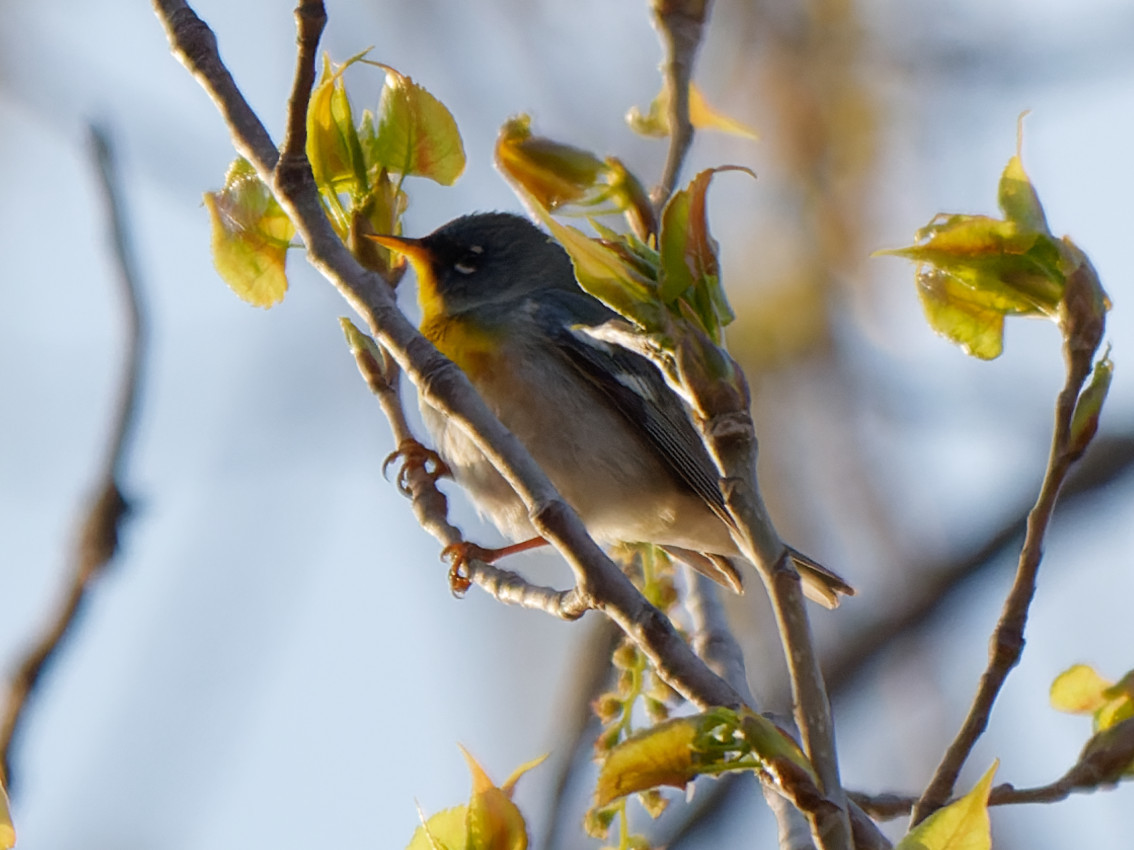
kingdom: Animalia
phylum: Chordata
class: Aves
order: Passeriformes
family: Parulidae
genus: Setophaga
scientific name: Setophaga americana
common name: Northern parula
